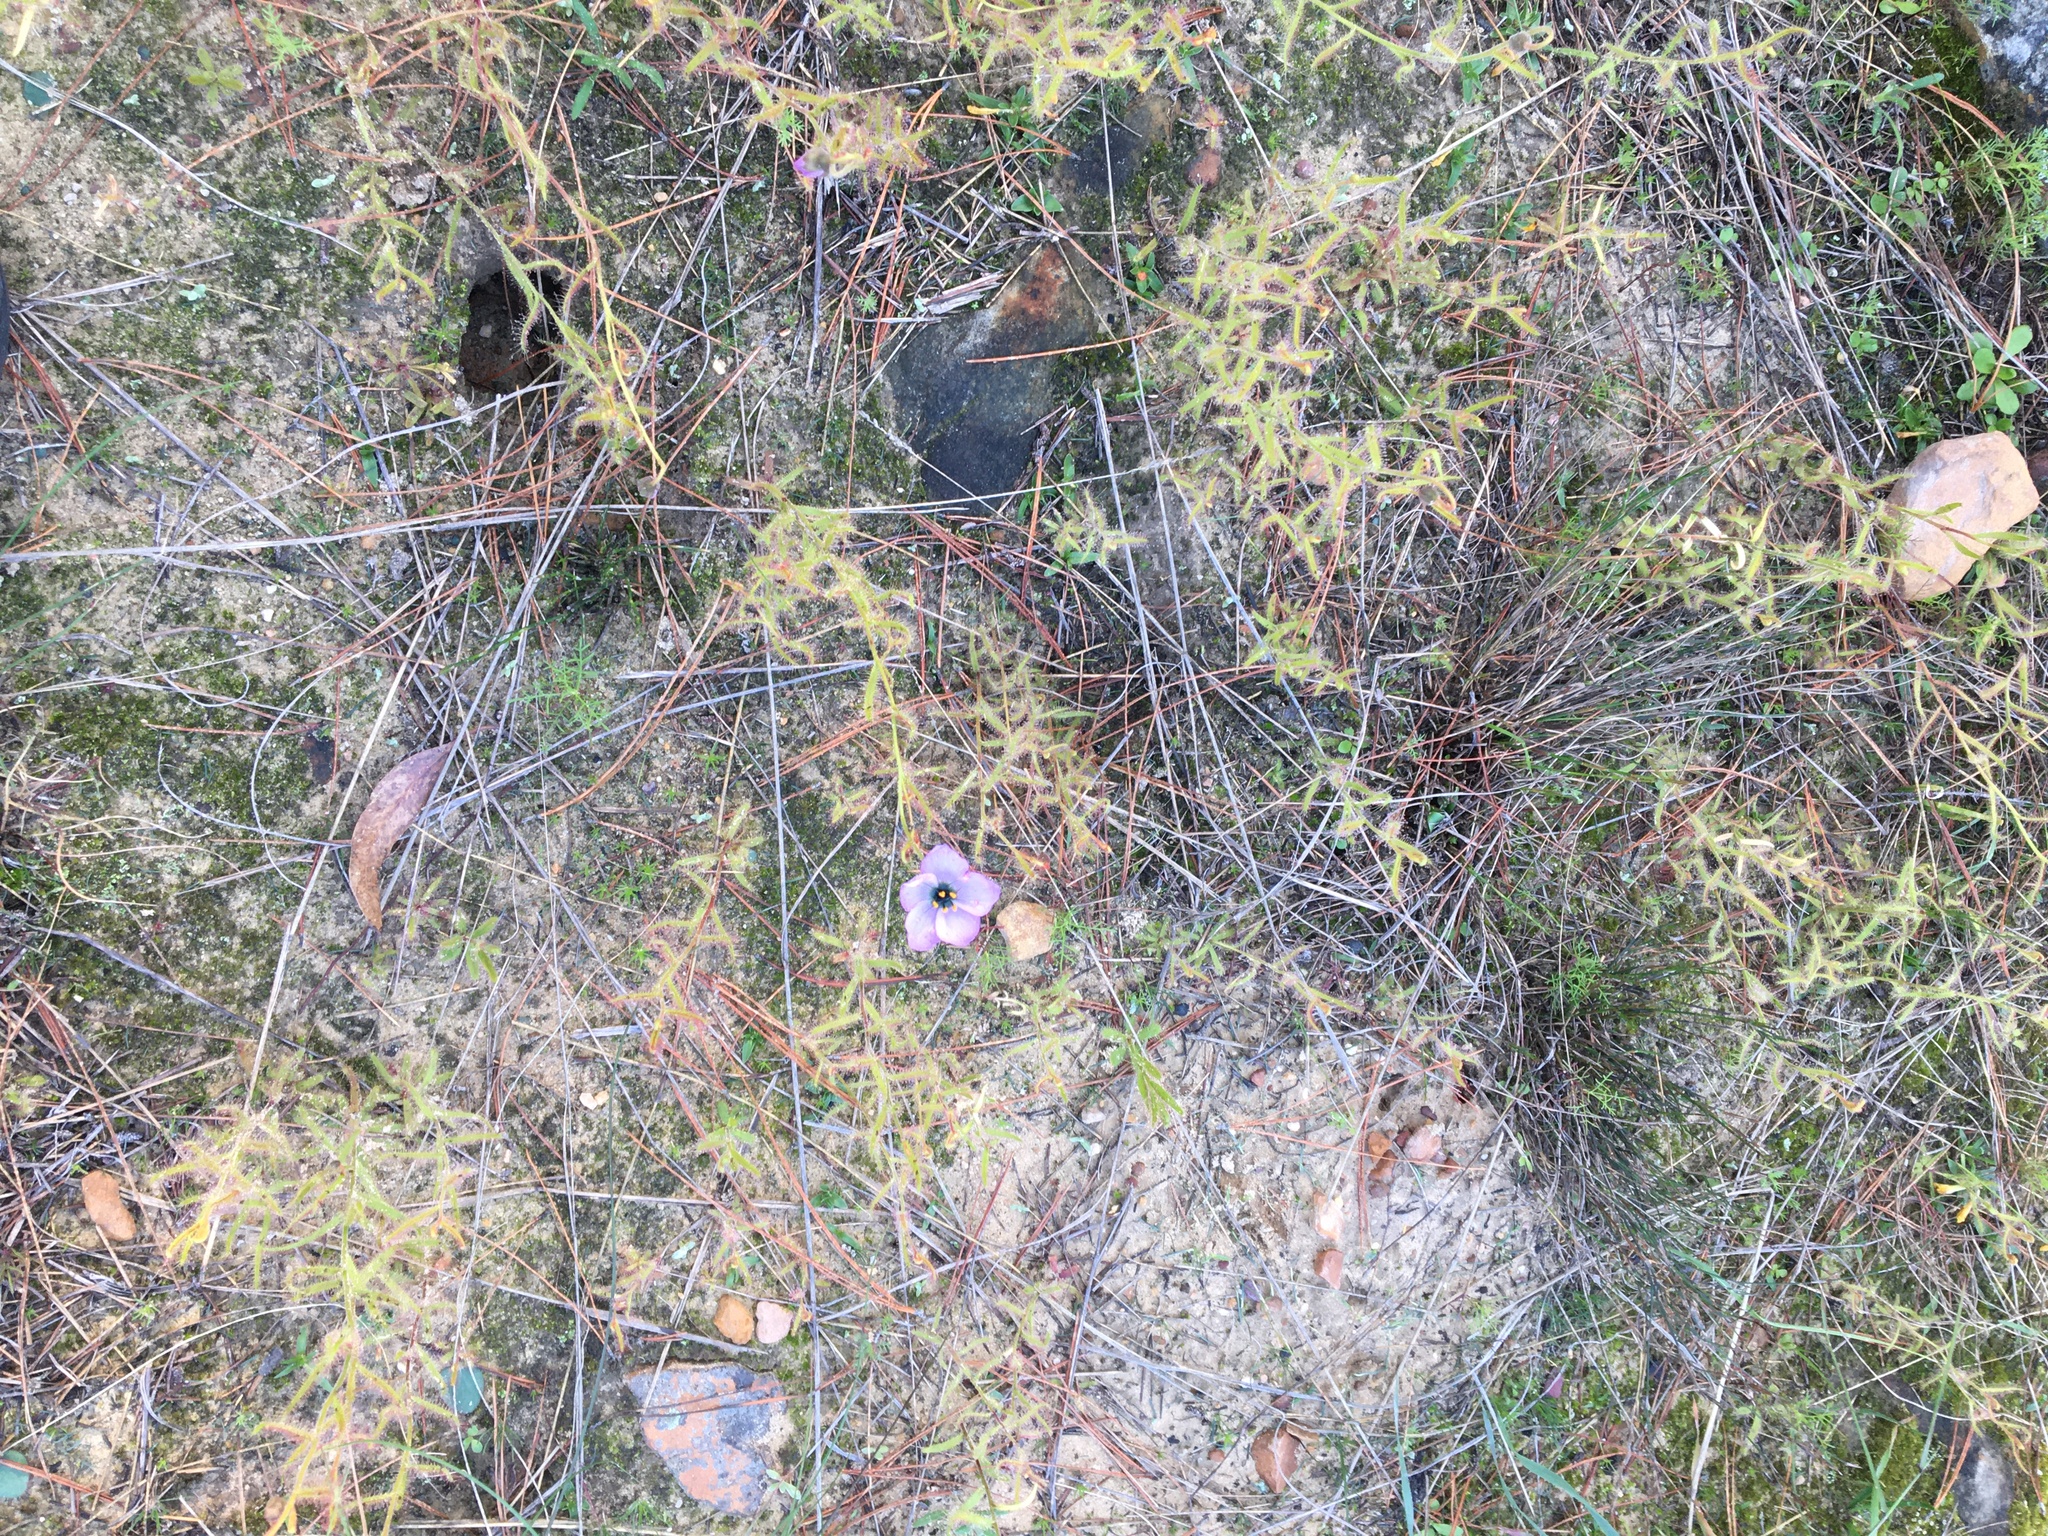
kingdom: Plantae
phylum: Tracheophyta
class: Magnoliopsida
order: Caryophyllales
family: Droseraceae
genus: Drosera
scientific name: Drosera cistiflora
